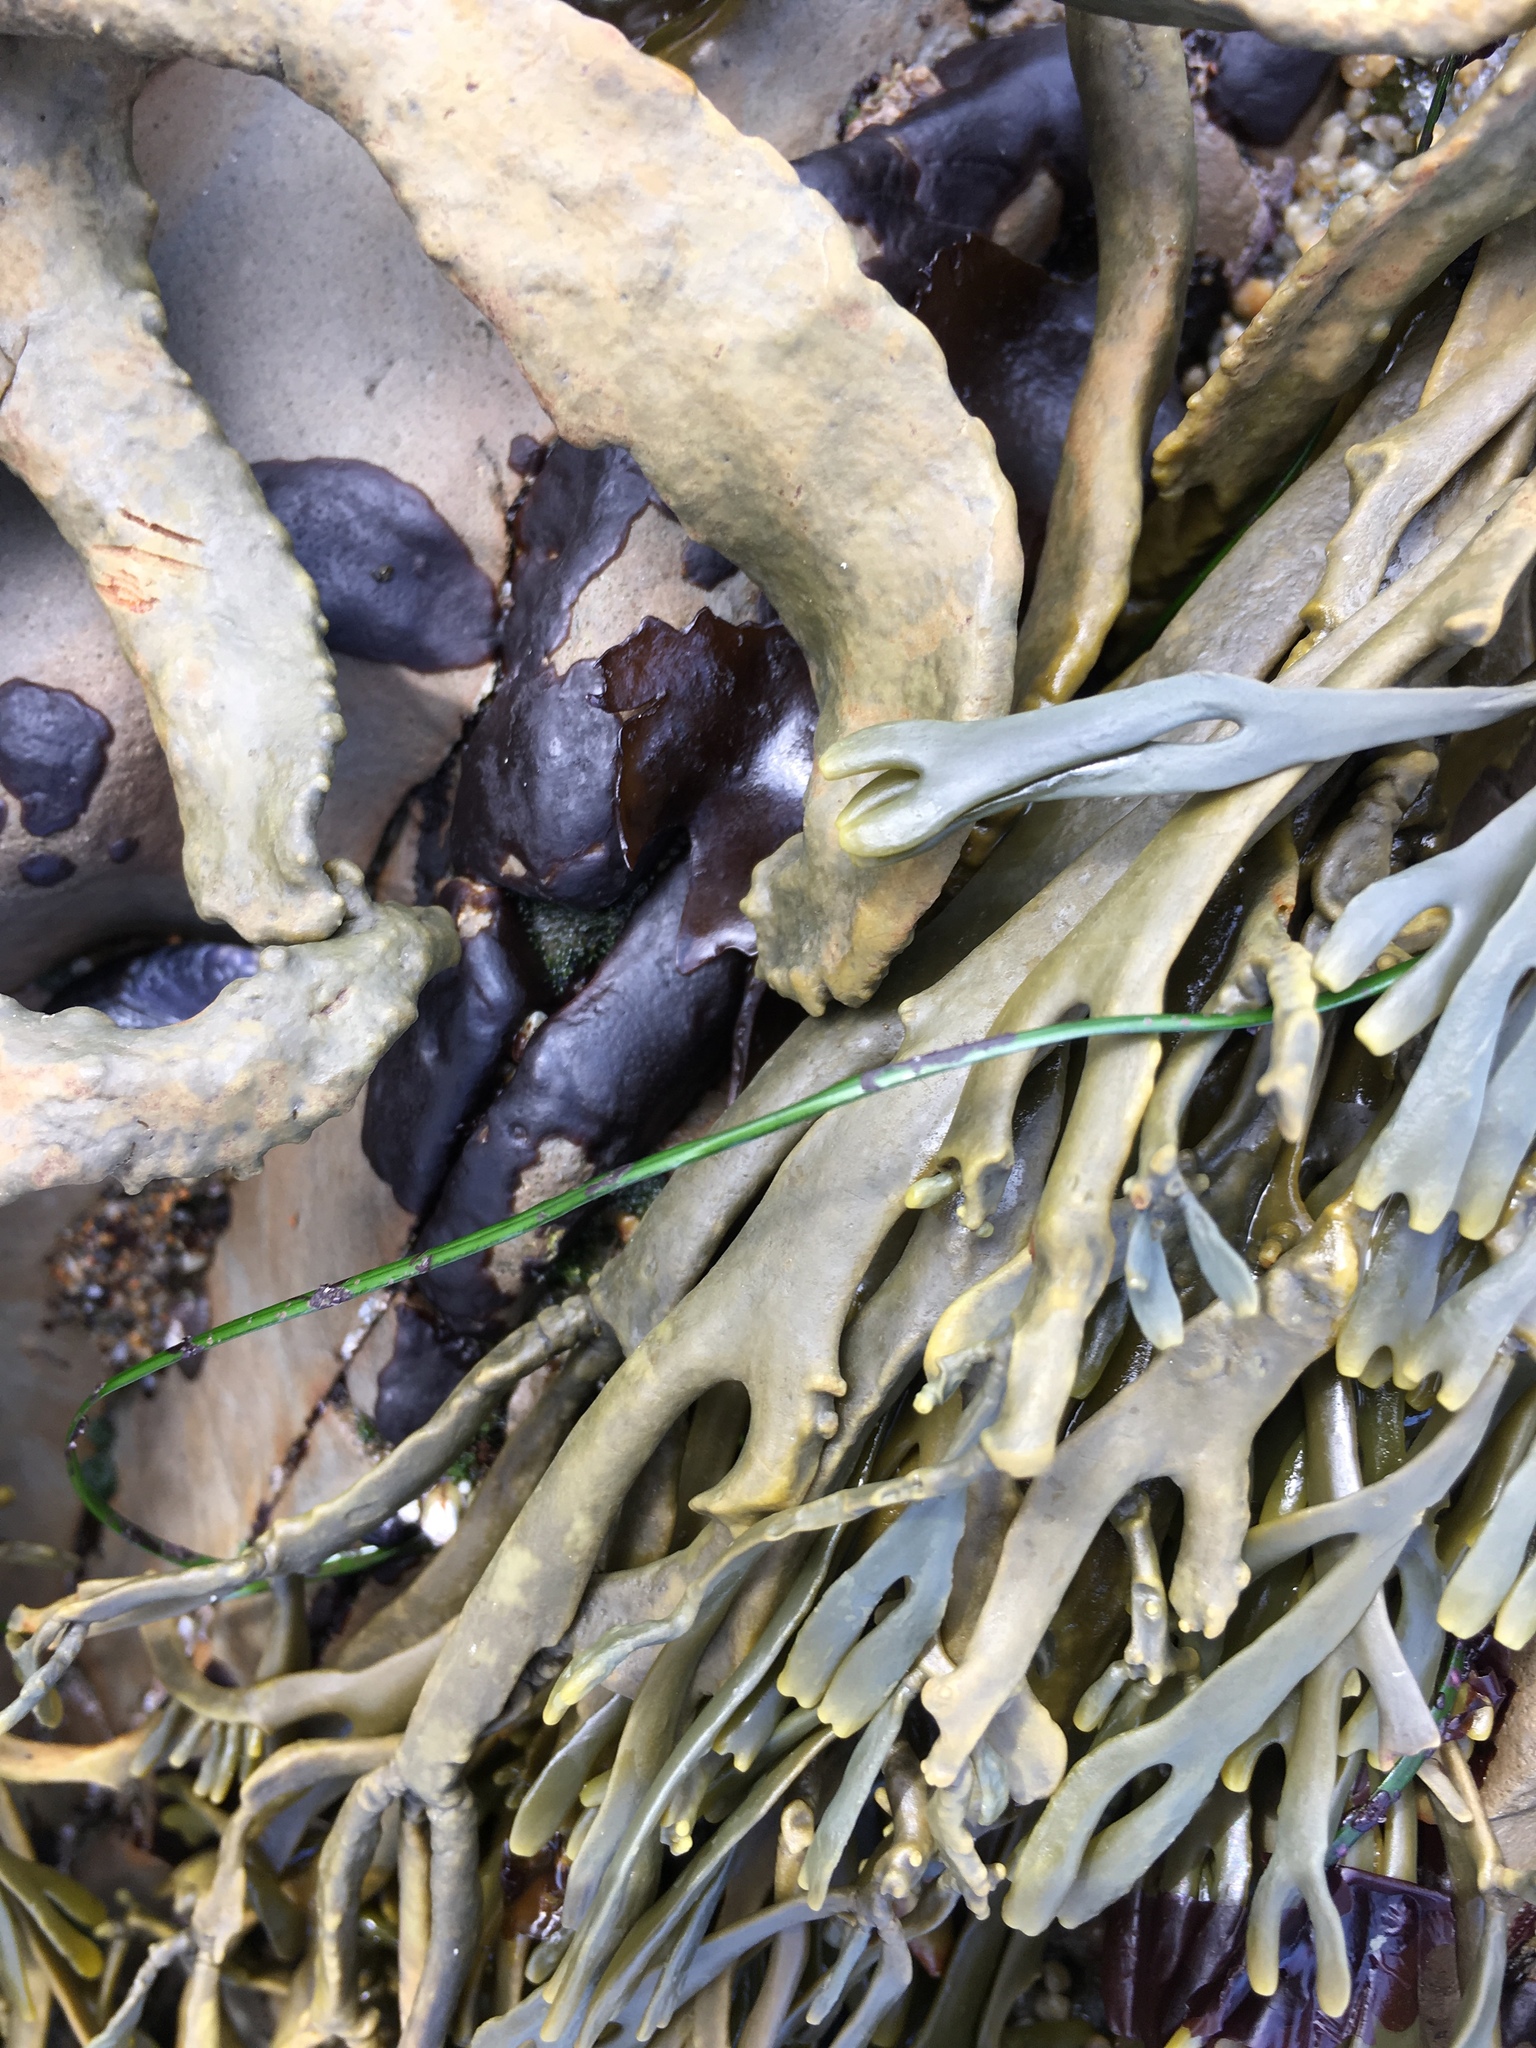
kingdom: Chromista
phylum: Ochrophyta
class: Phaeophyceae
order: Fucales
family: Fucaceae
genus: Silvetia
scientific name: Silvetia
